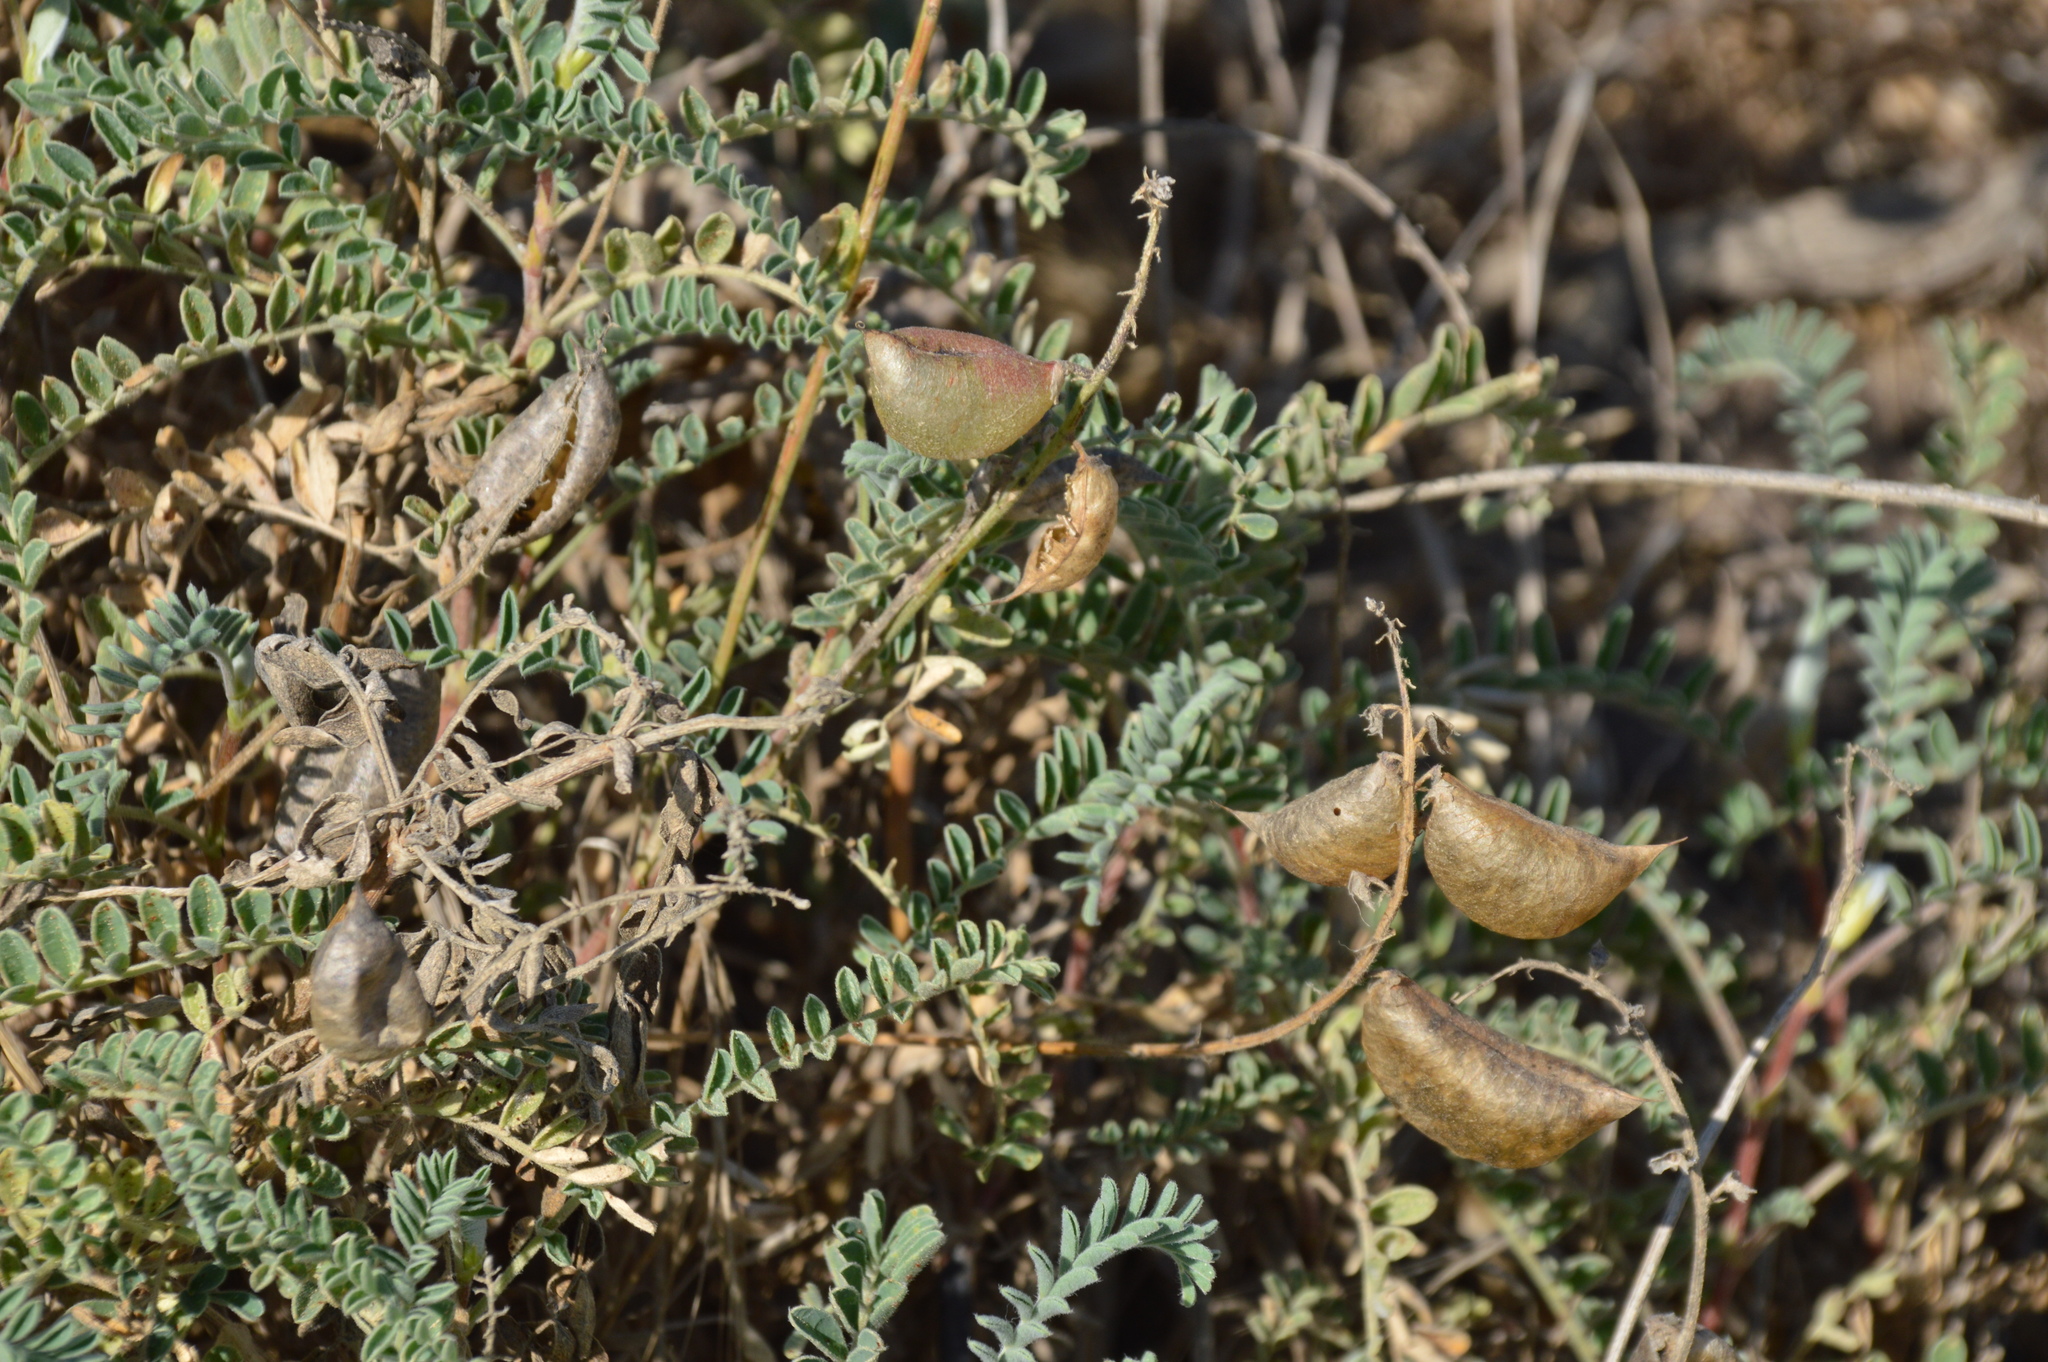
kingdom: Plantae
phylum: Tracheophyta
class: Magnoliopsida
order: Fabales
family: Fabaceae
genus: Astragalus
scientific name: Astragalus nuttallii
